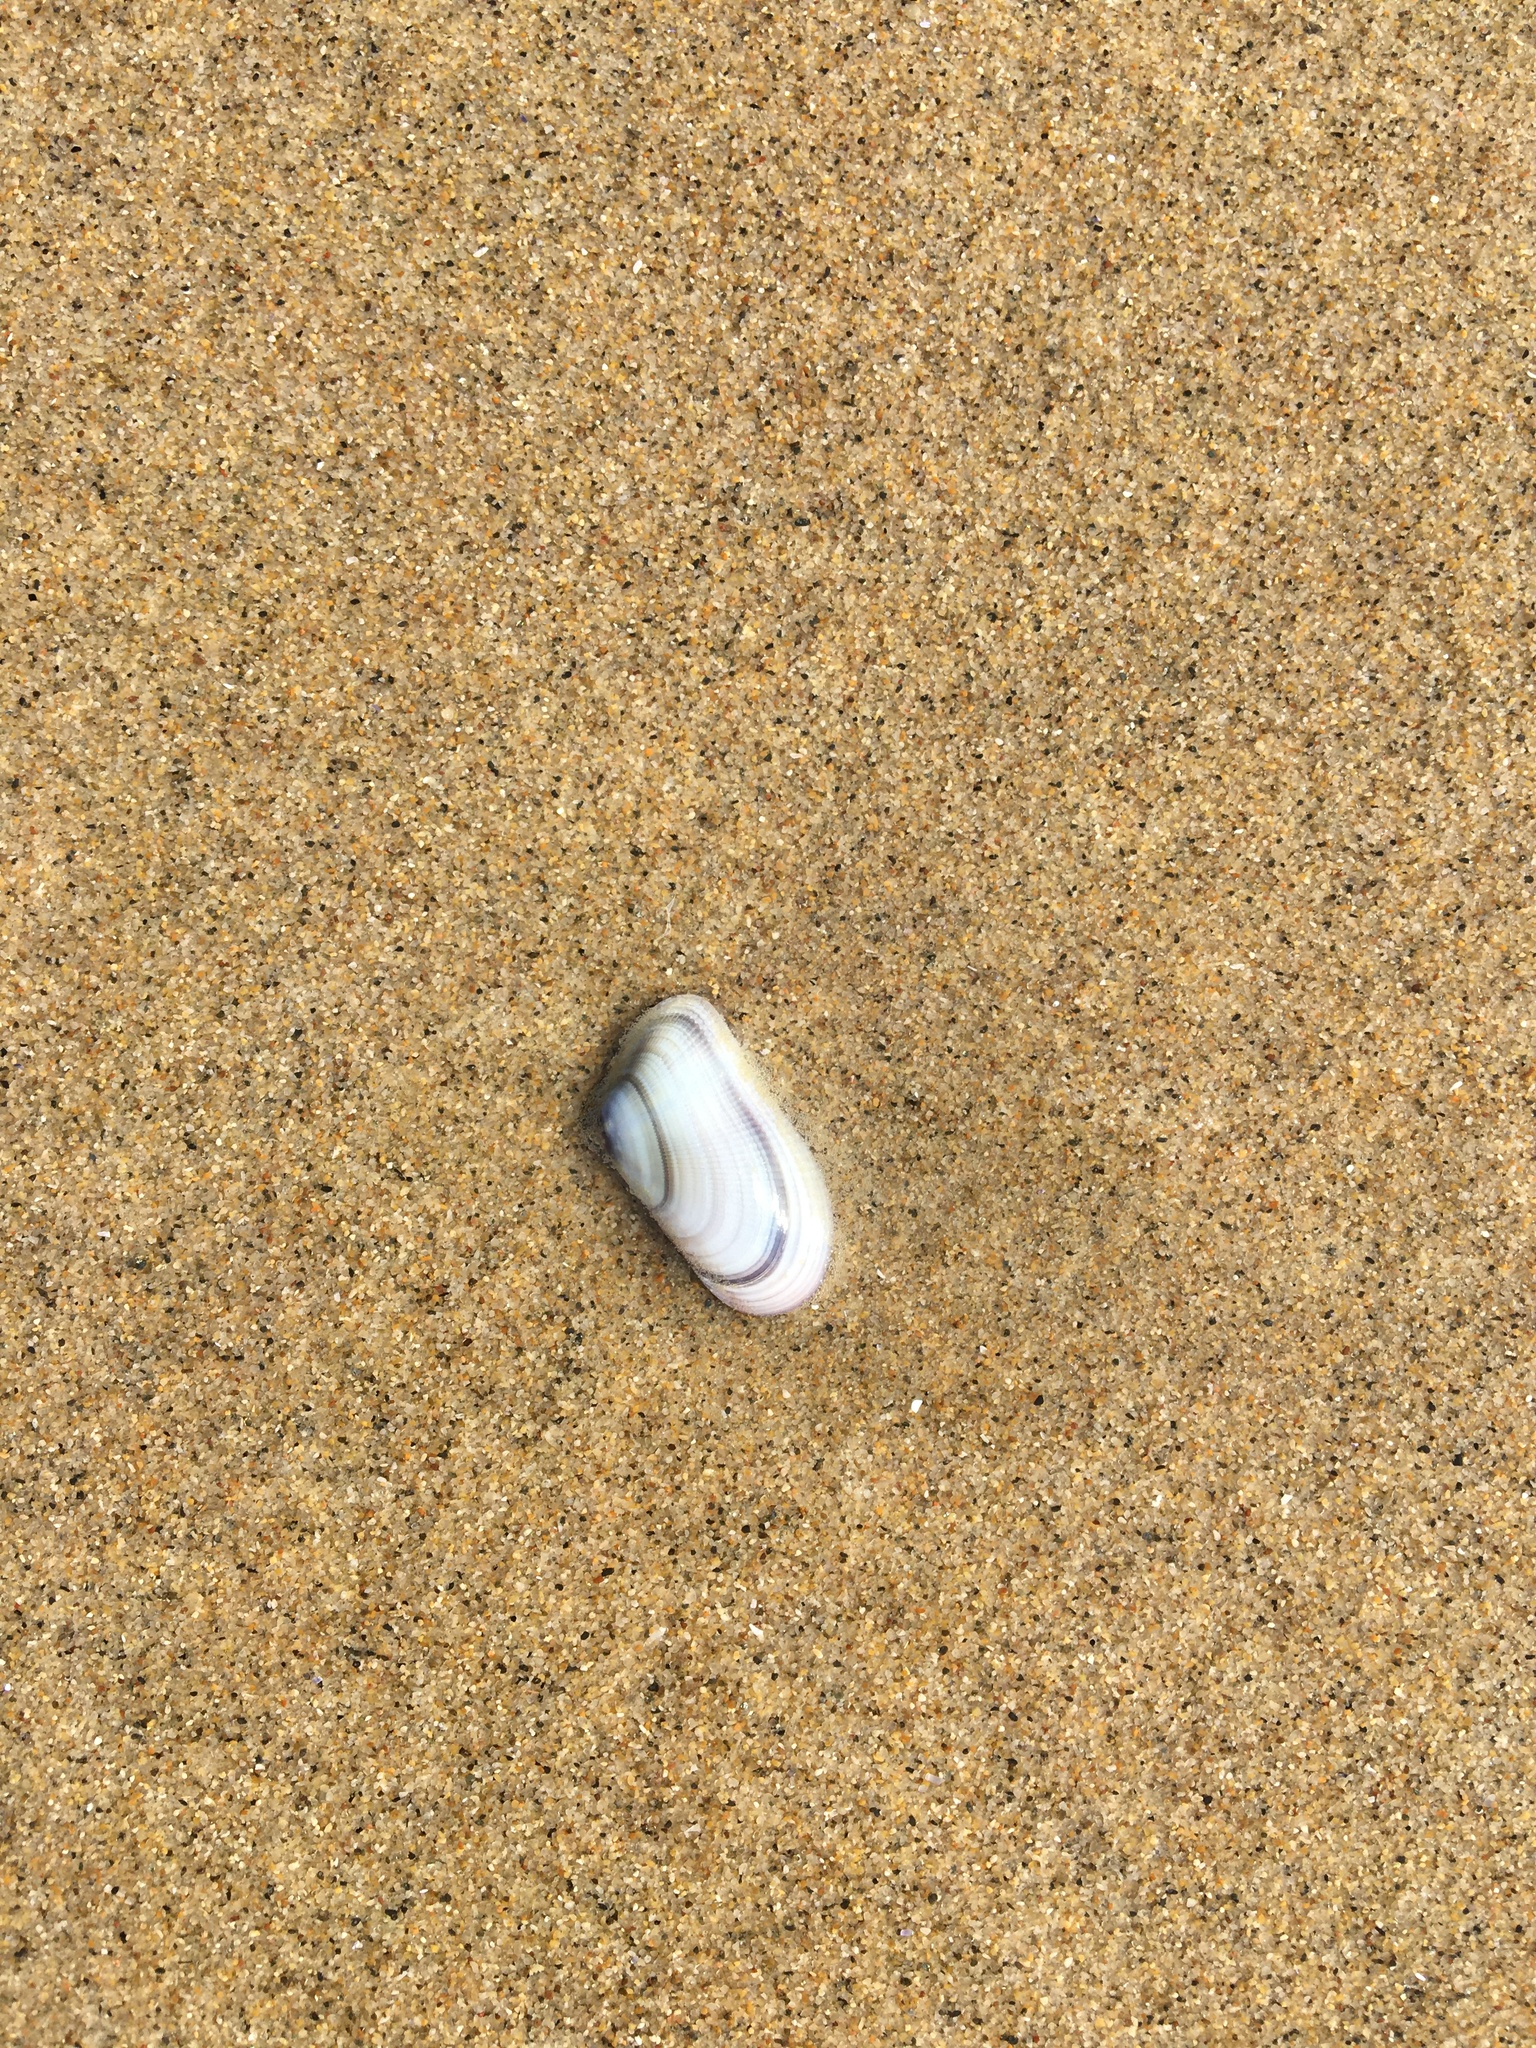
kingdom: Animalia
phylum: Mollusca
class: Bivalvia
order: Cardiida
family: Donacidae
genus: Donax
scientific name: Donax gouldii
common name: Gould beanclam
